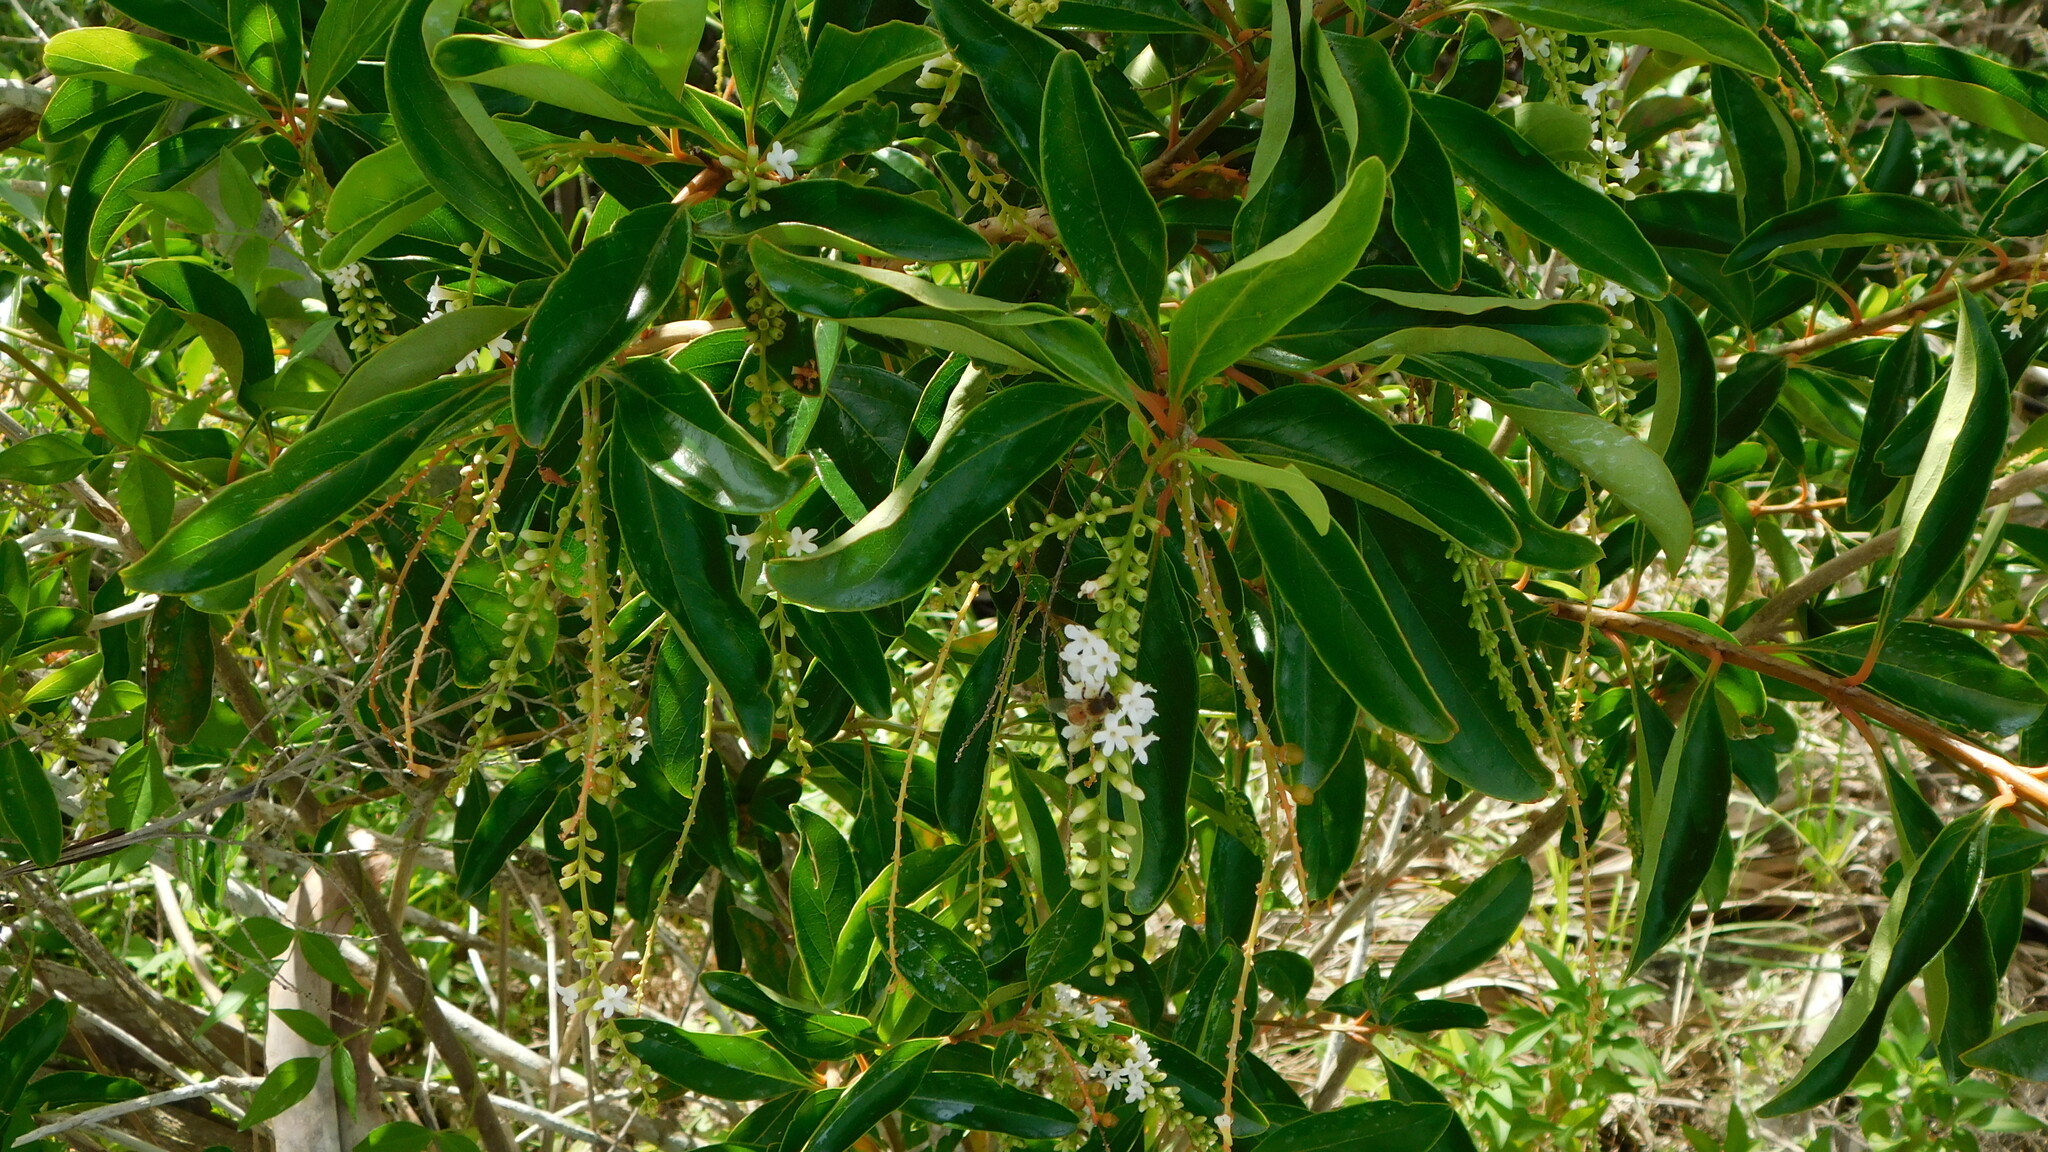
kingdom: Animalia
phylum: Arthropoda
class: Insecta
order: Hymenoptera
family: Apidae
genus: Apis
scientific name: Apis mellifera
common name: Honey bee
